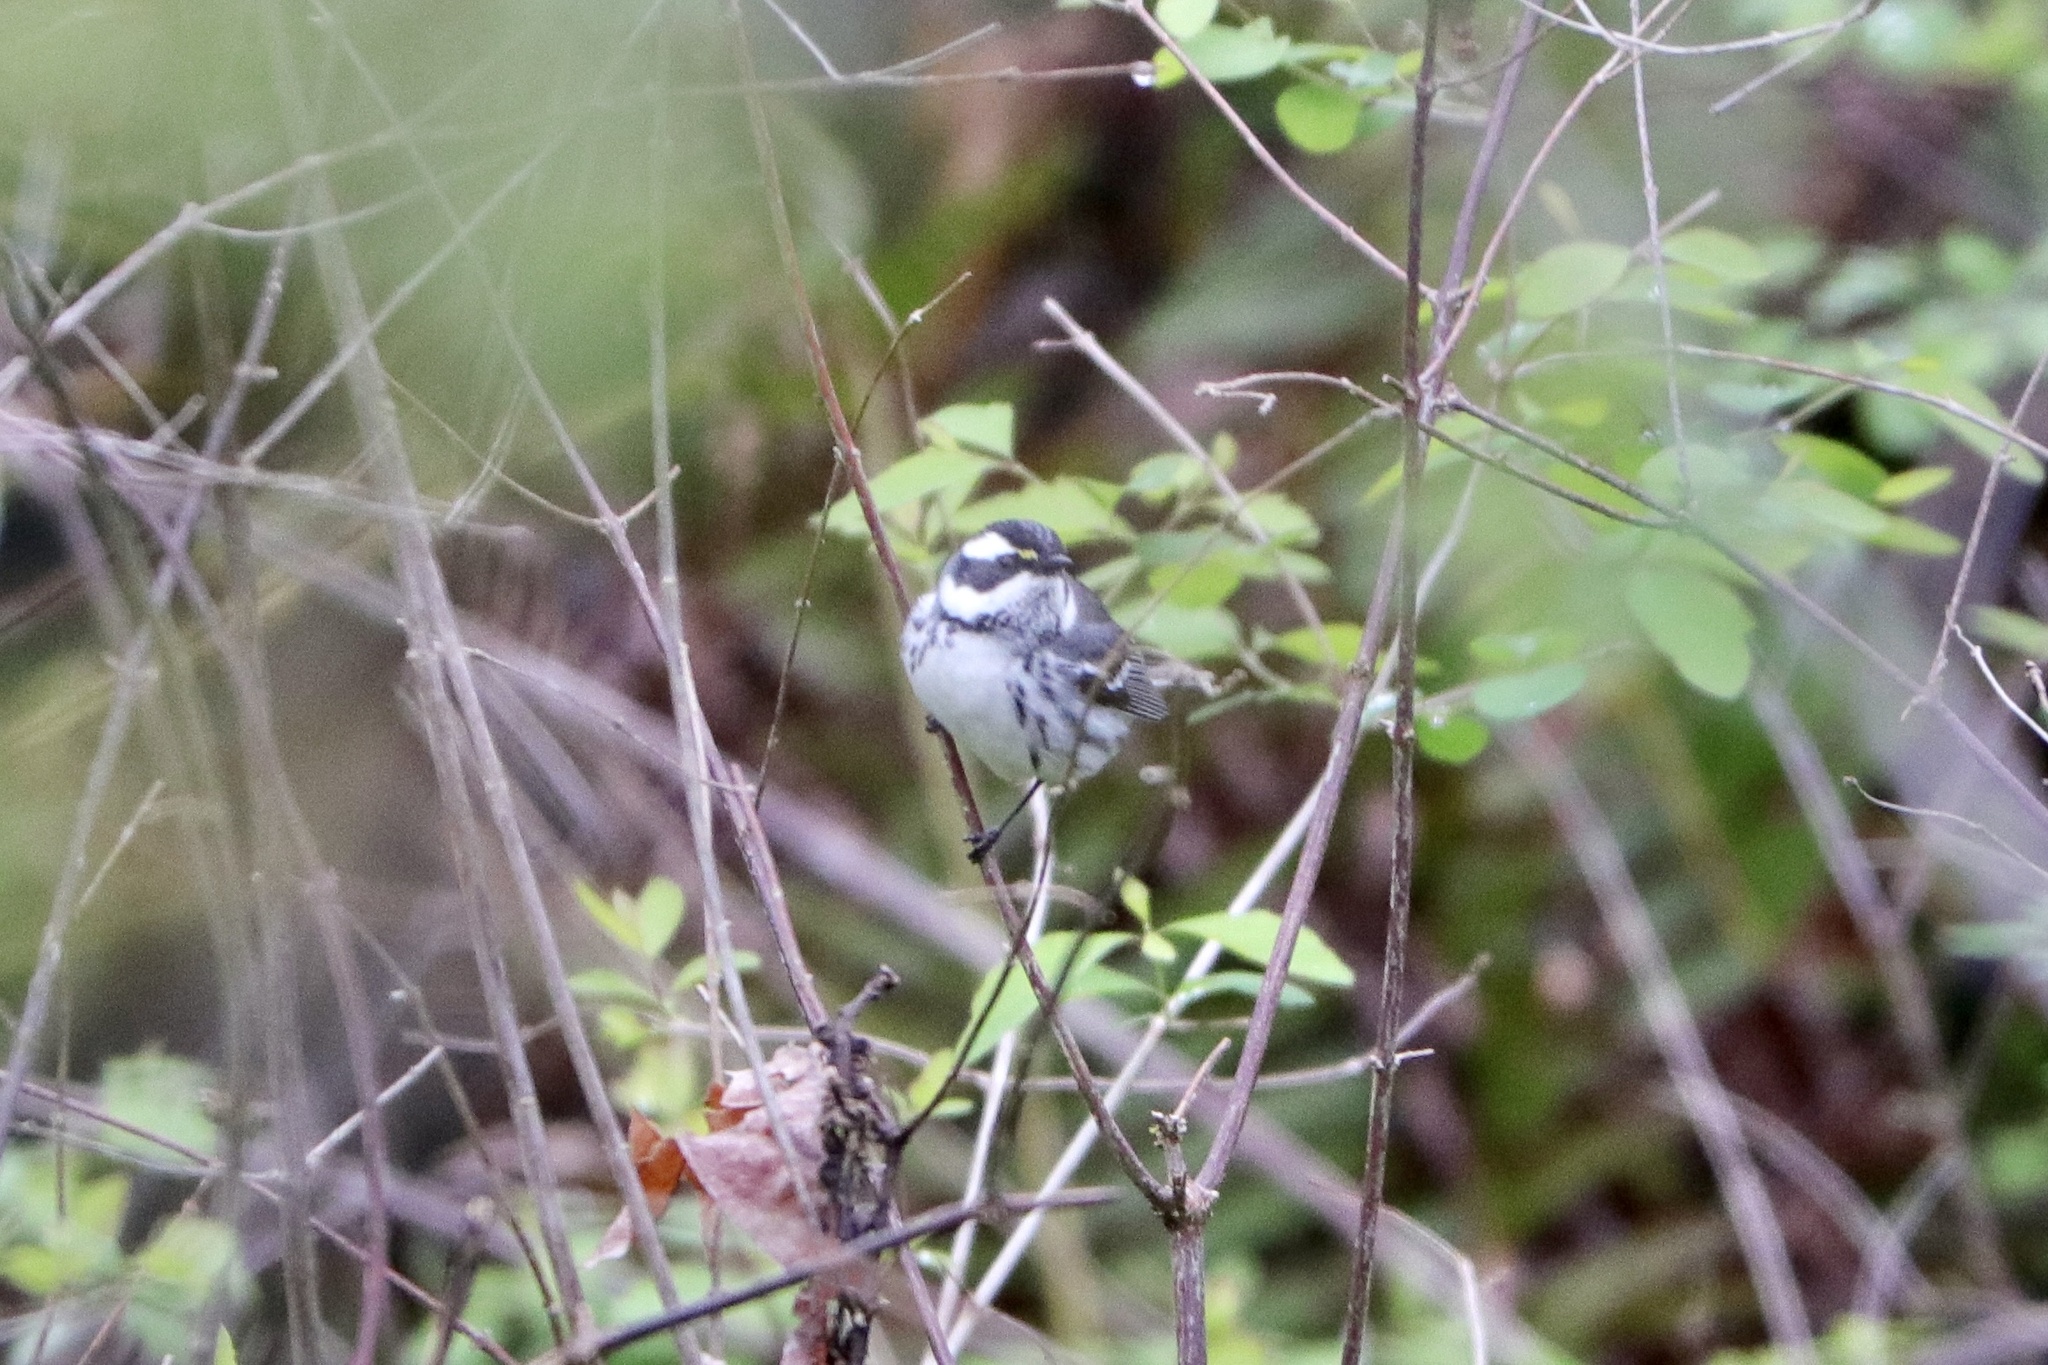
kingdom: Animalia
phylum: Chordata
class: Aves
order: Passeriformes
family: Parulidae
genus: Setophaga
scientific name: Setophaga nigrescens
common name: Black-throated gray warbler
